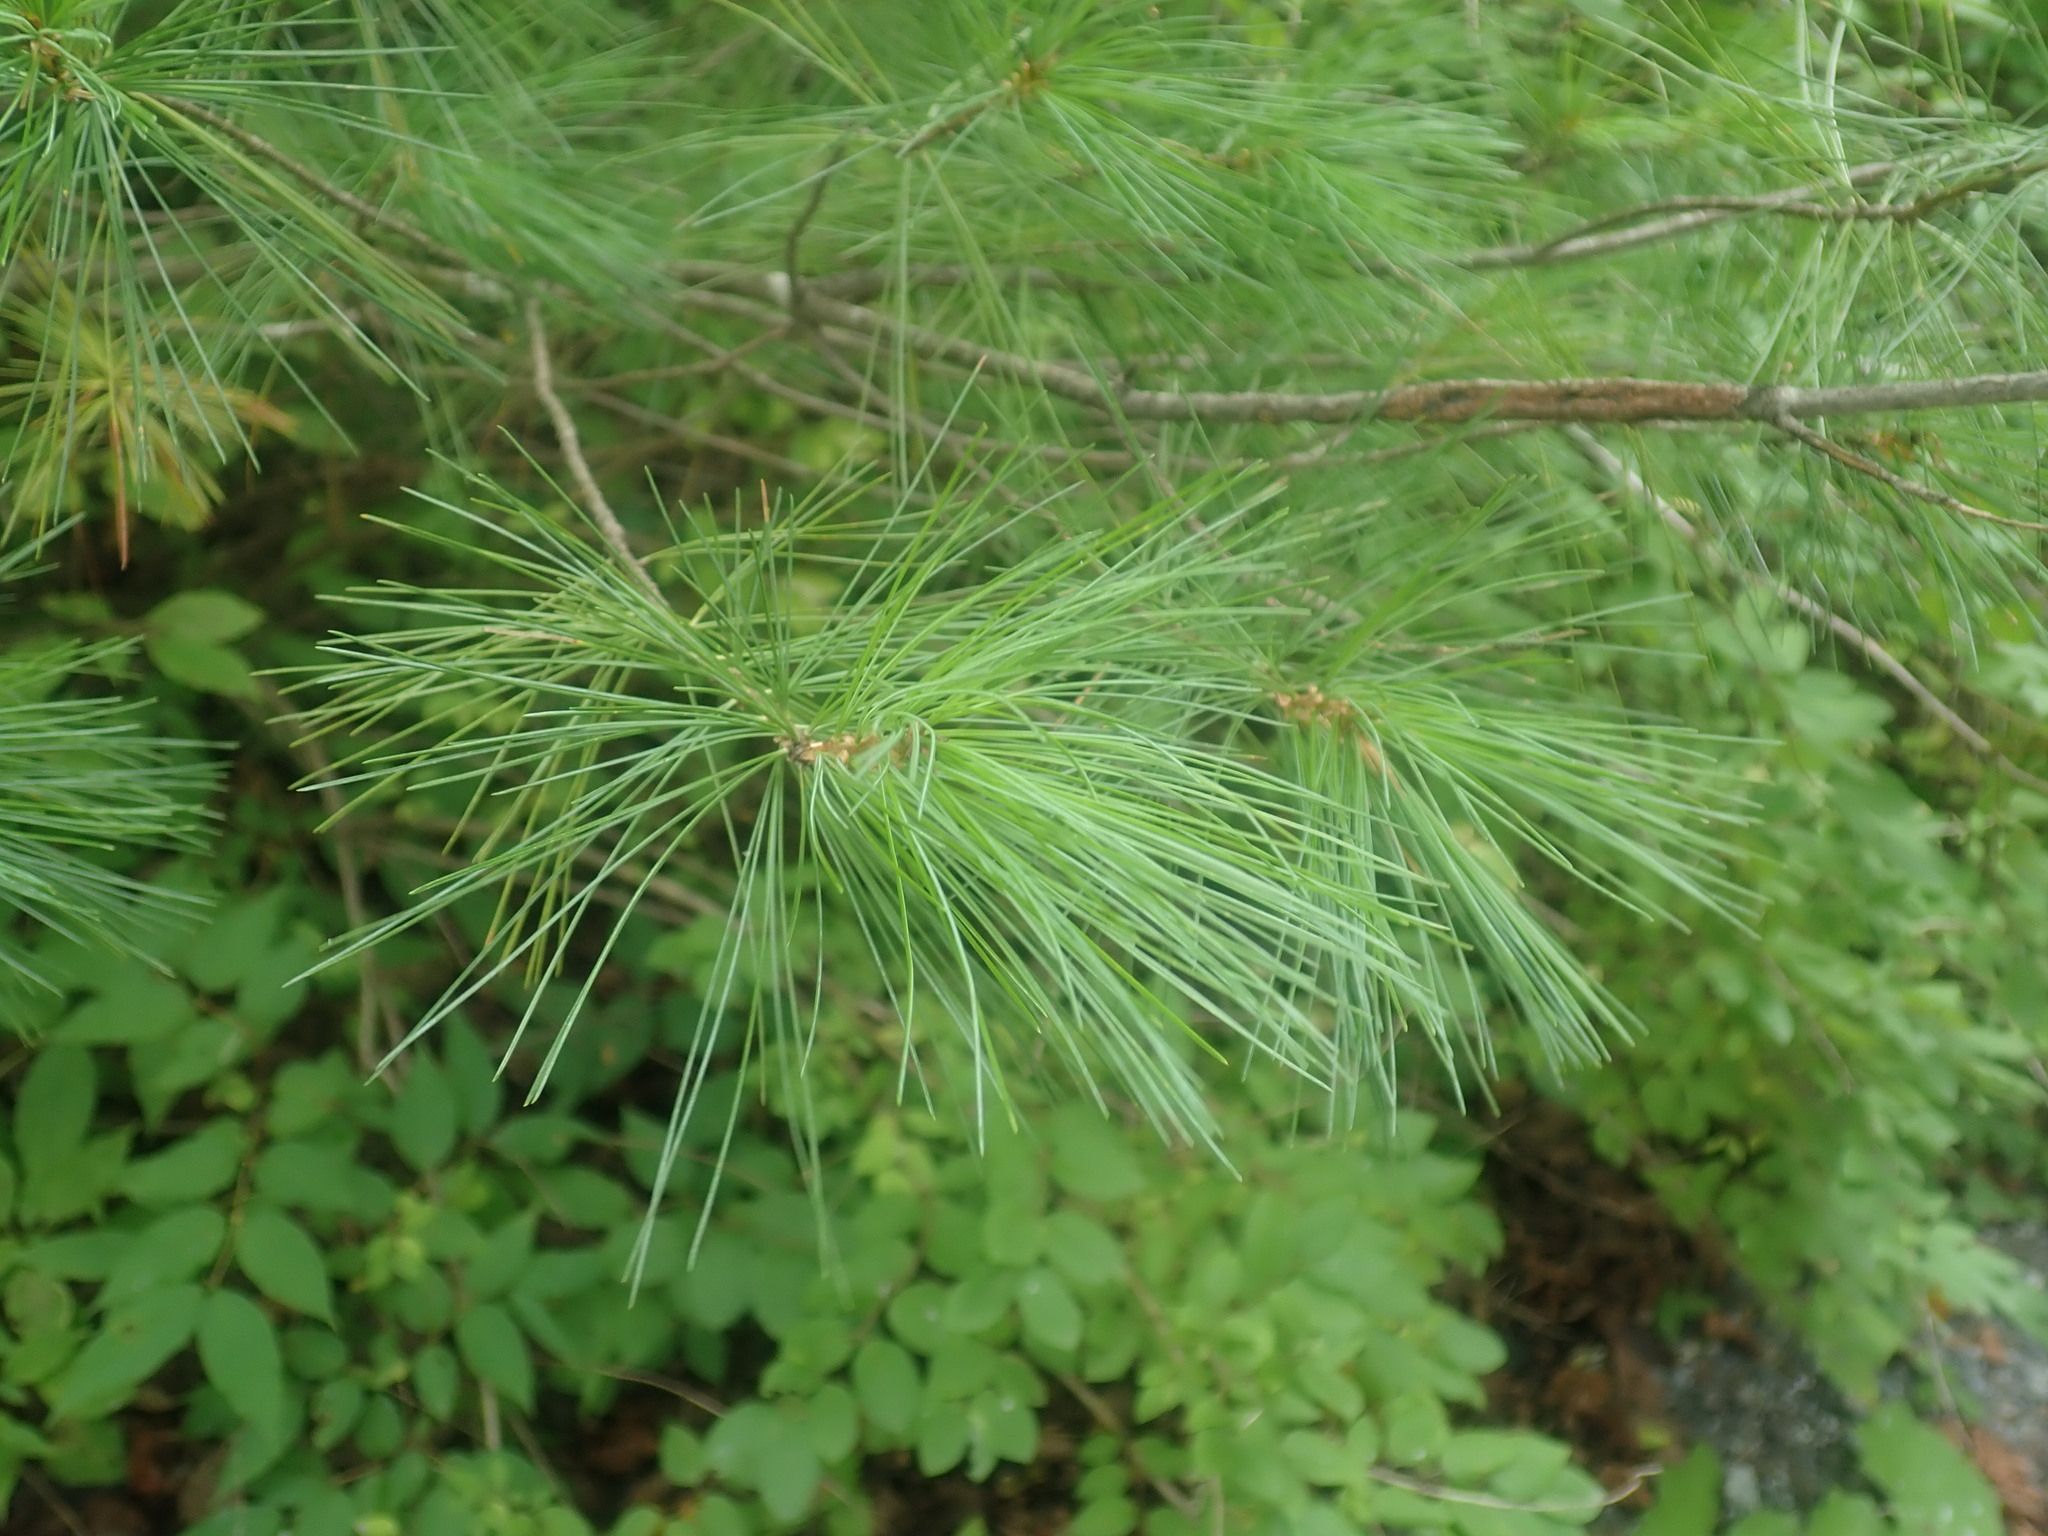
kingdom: Plantae
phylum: Tracheophyta
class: Pinopsida
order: Pinales
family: Pinaceae
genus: Pinus
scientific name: Pinus strobus
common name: Weymouth pine
